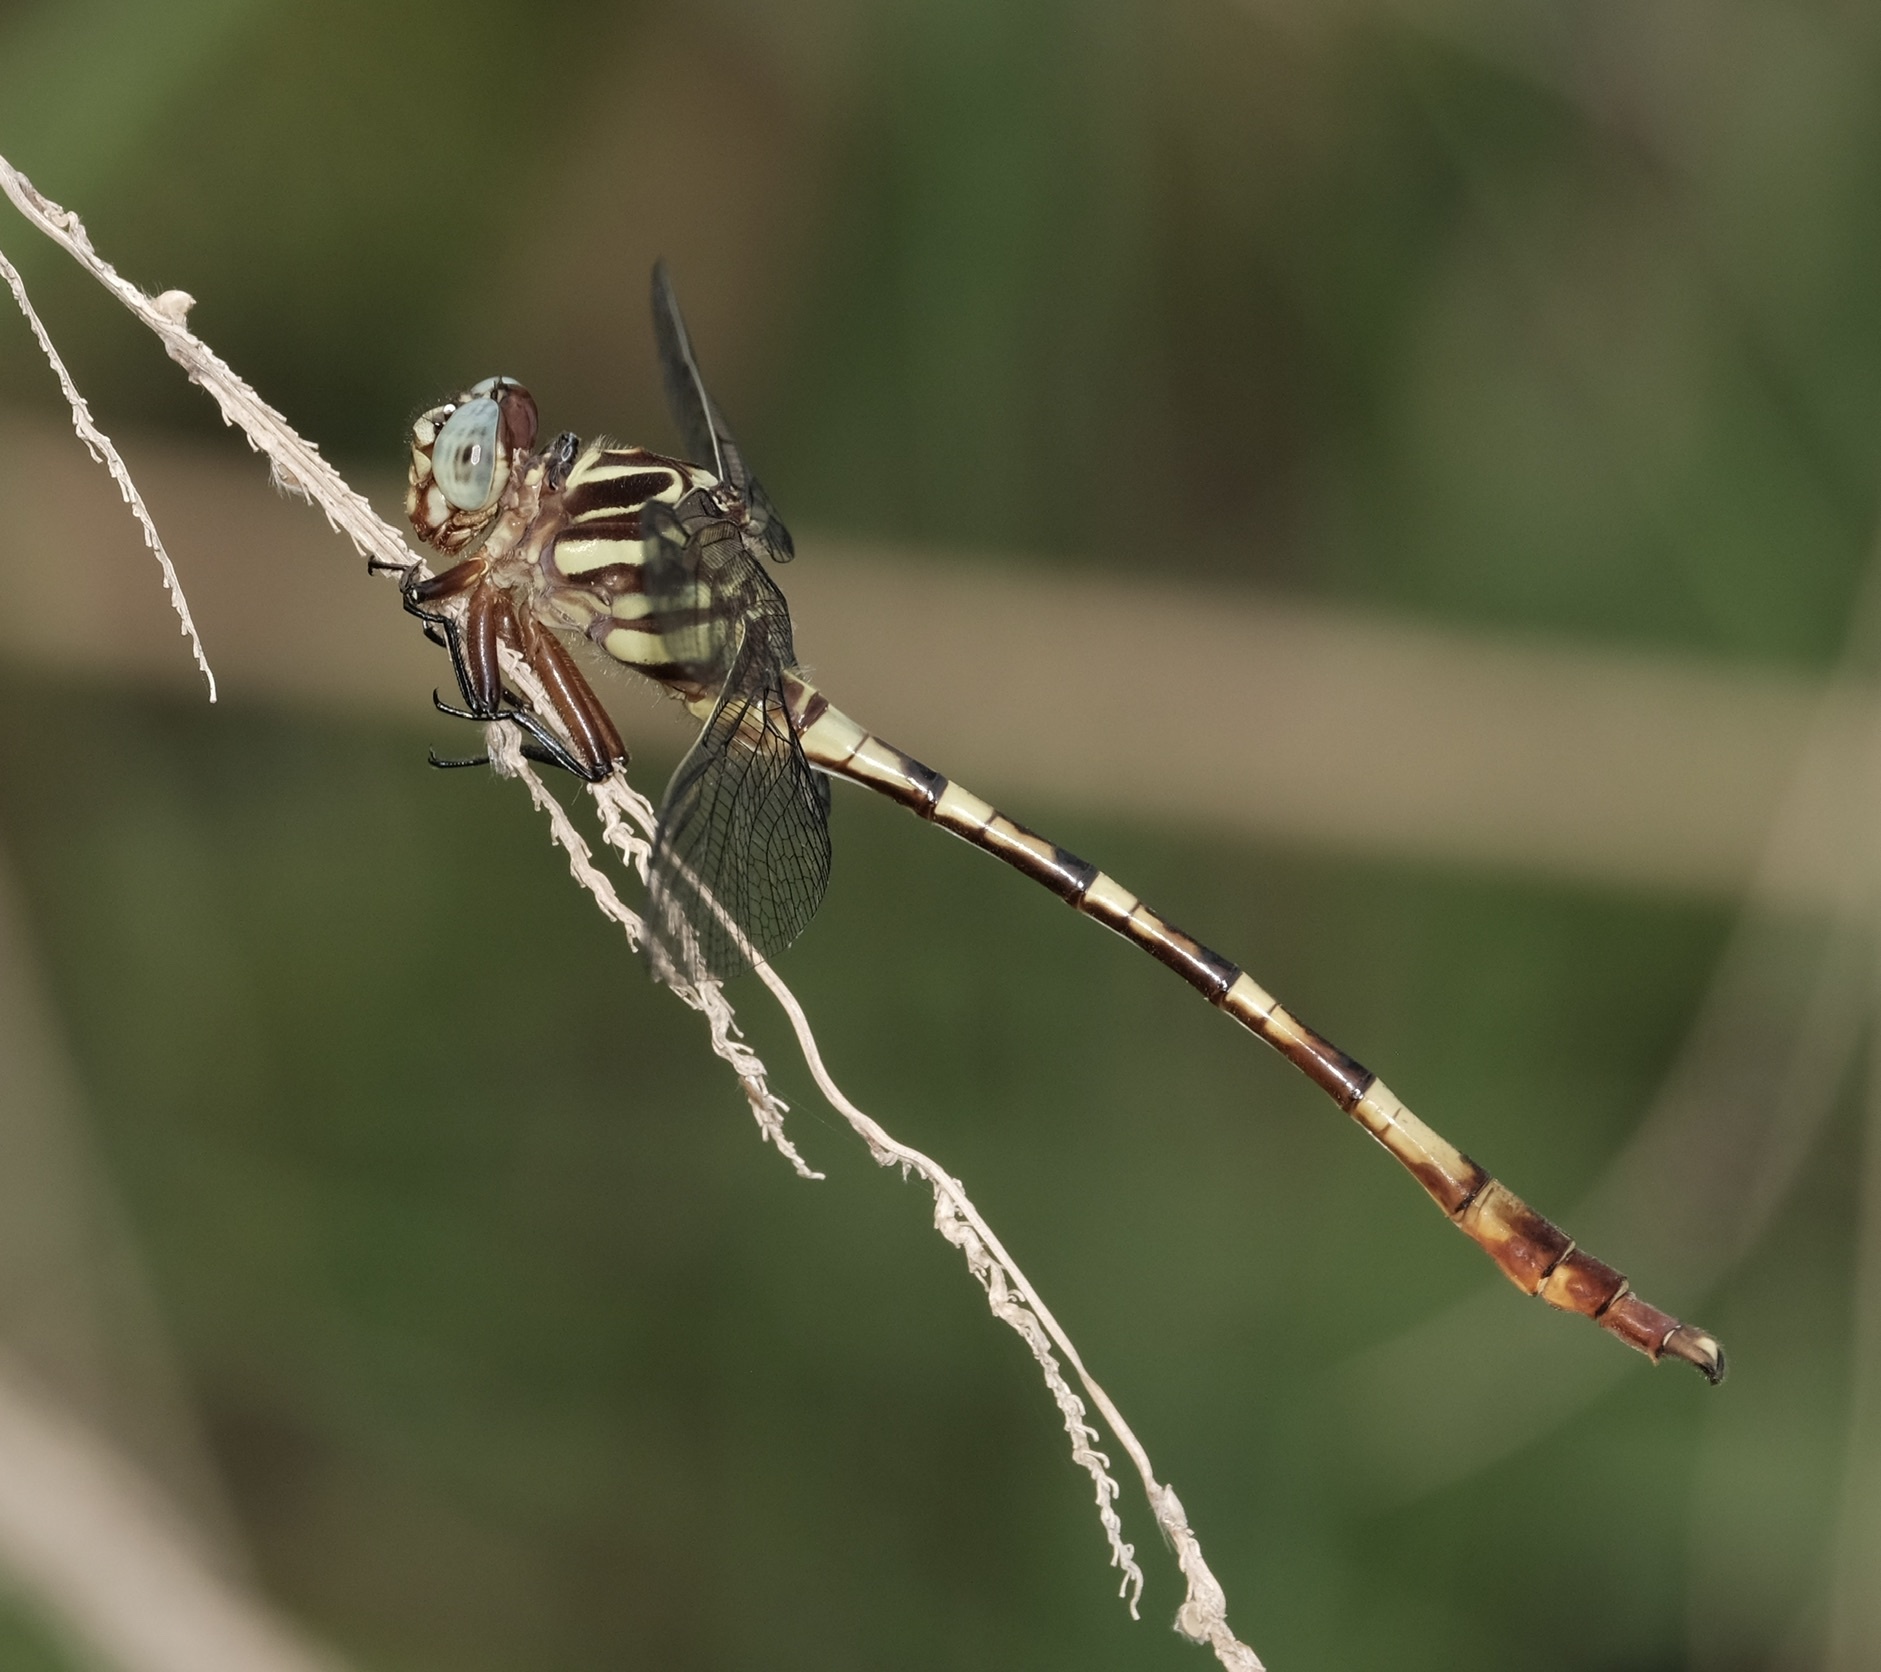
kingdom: Animalia
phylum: Arthropoda
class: Insecta
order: Odonata
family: Gomphidae
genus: Aphylla
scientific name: Aphylla angustifolia
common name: Broad-striped forceptail
